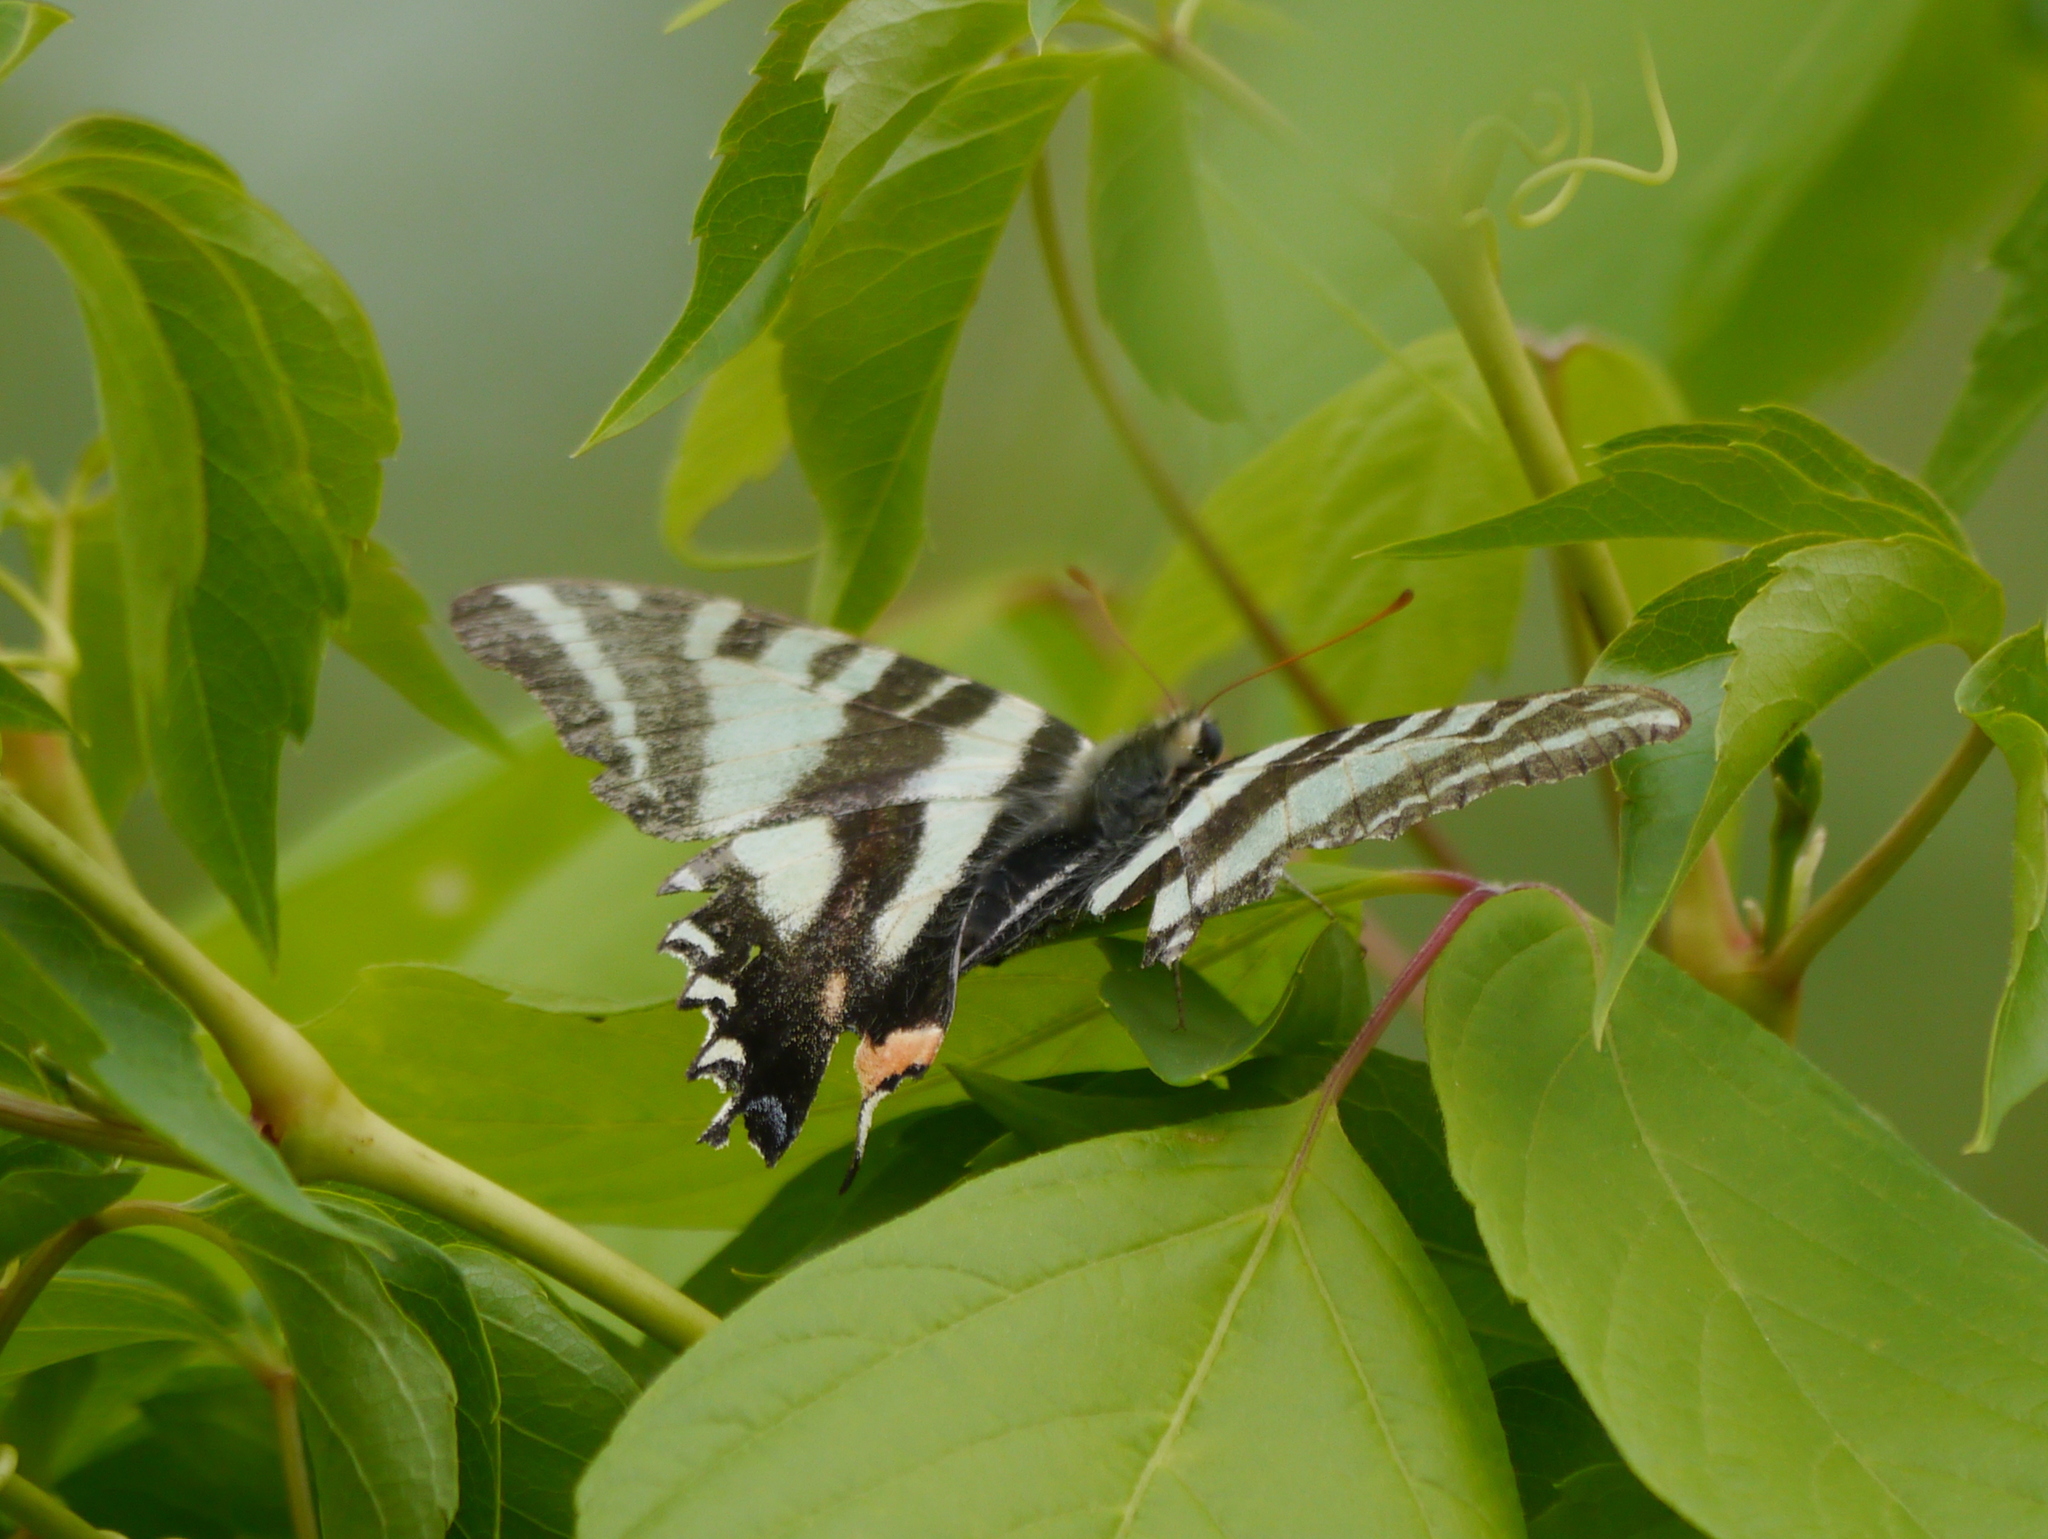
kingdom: Animalia
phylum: Arthropoda
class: Insecta
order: Lepidoptera
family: Papilionidae
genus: Protographium
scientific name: Protographium marcellus
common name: Zebra swallowtail
